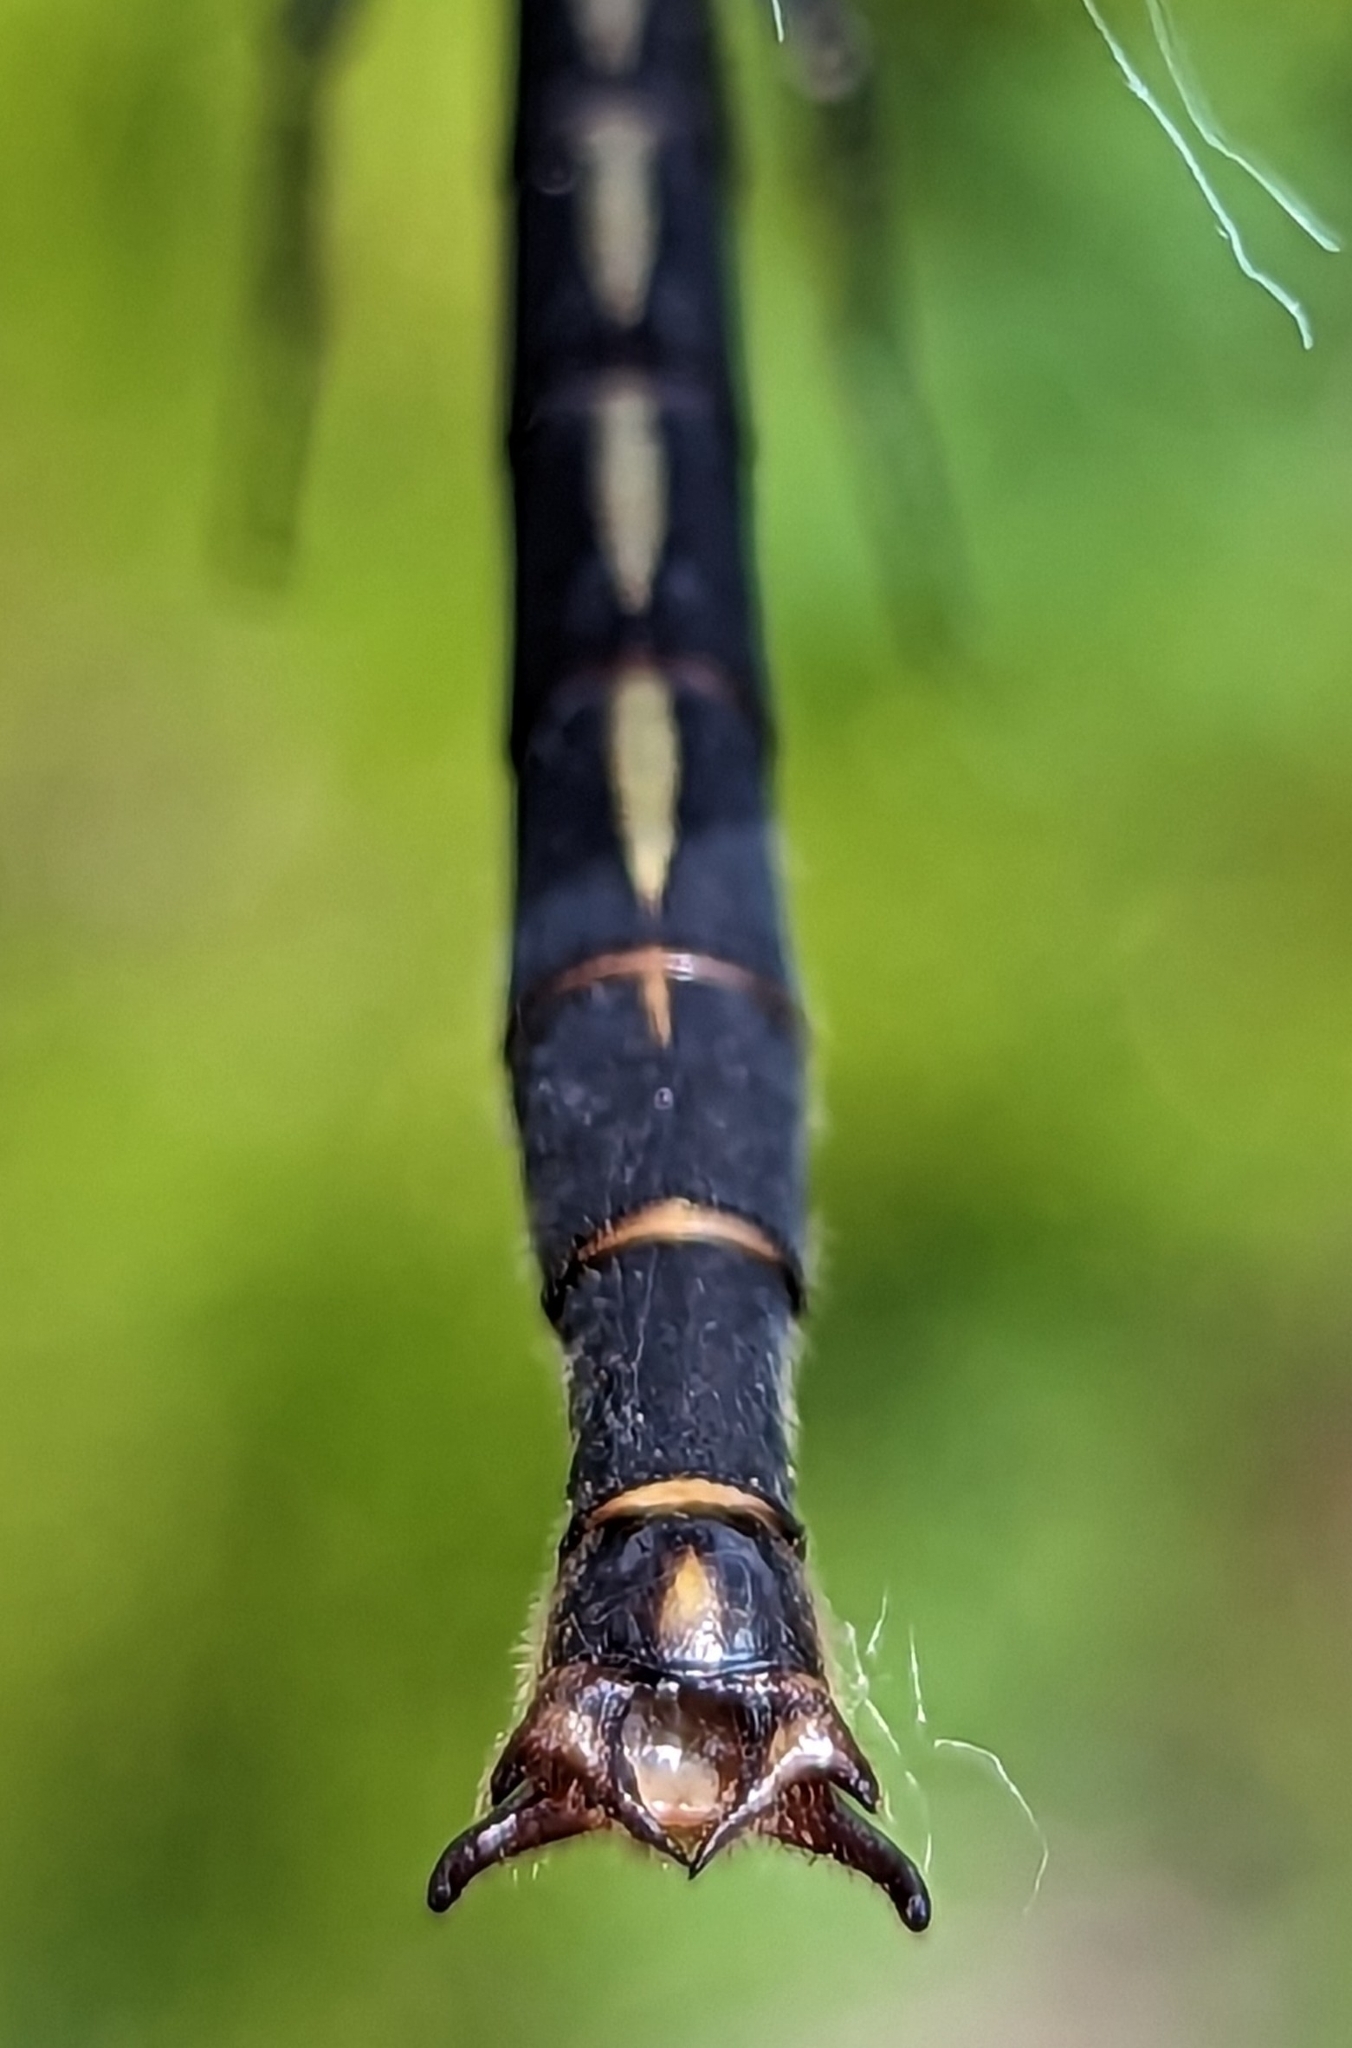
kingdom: Animalia
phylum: Arthropoda
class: Insecta
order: Odonata
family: Gomphidae
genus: Arigomphus
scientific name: Arigomphus cornutus
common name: Horned clubtail
